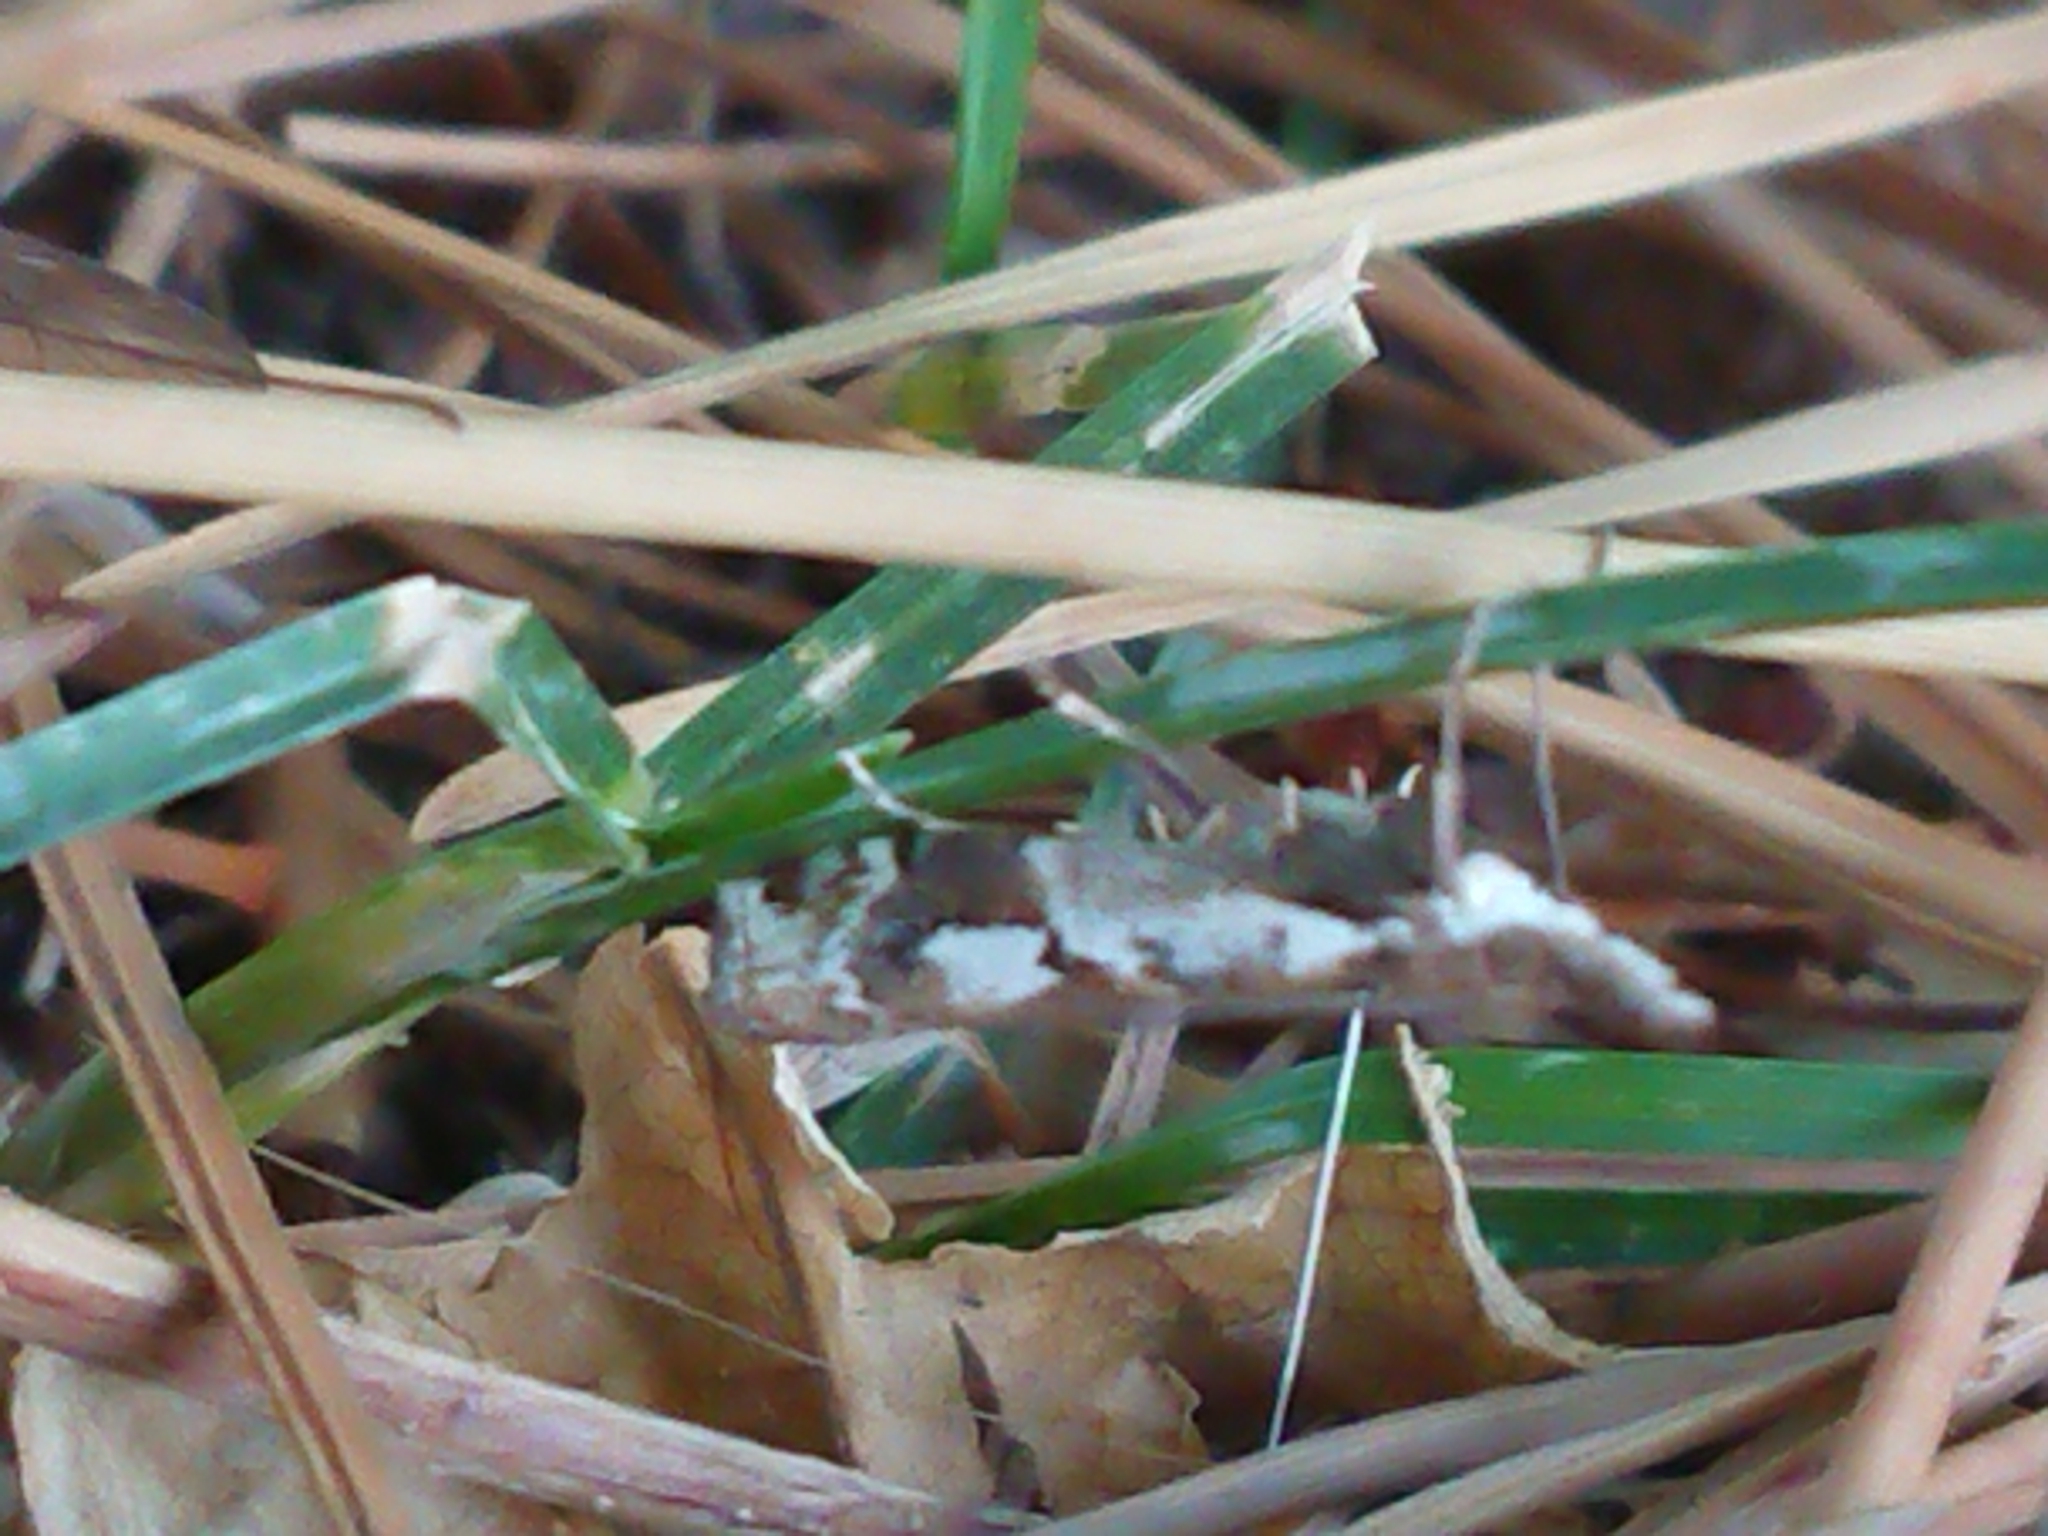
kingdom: Animalia
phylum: Arthropoda
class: Insecta
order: Lepidoptera
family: Crambidae
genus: Orocrambus
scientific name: Orocrambus vulgaris
